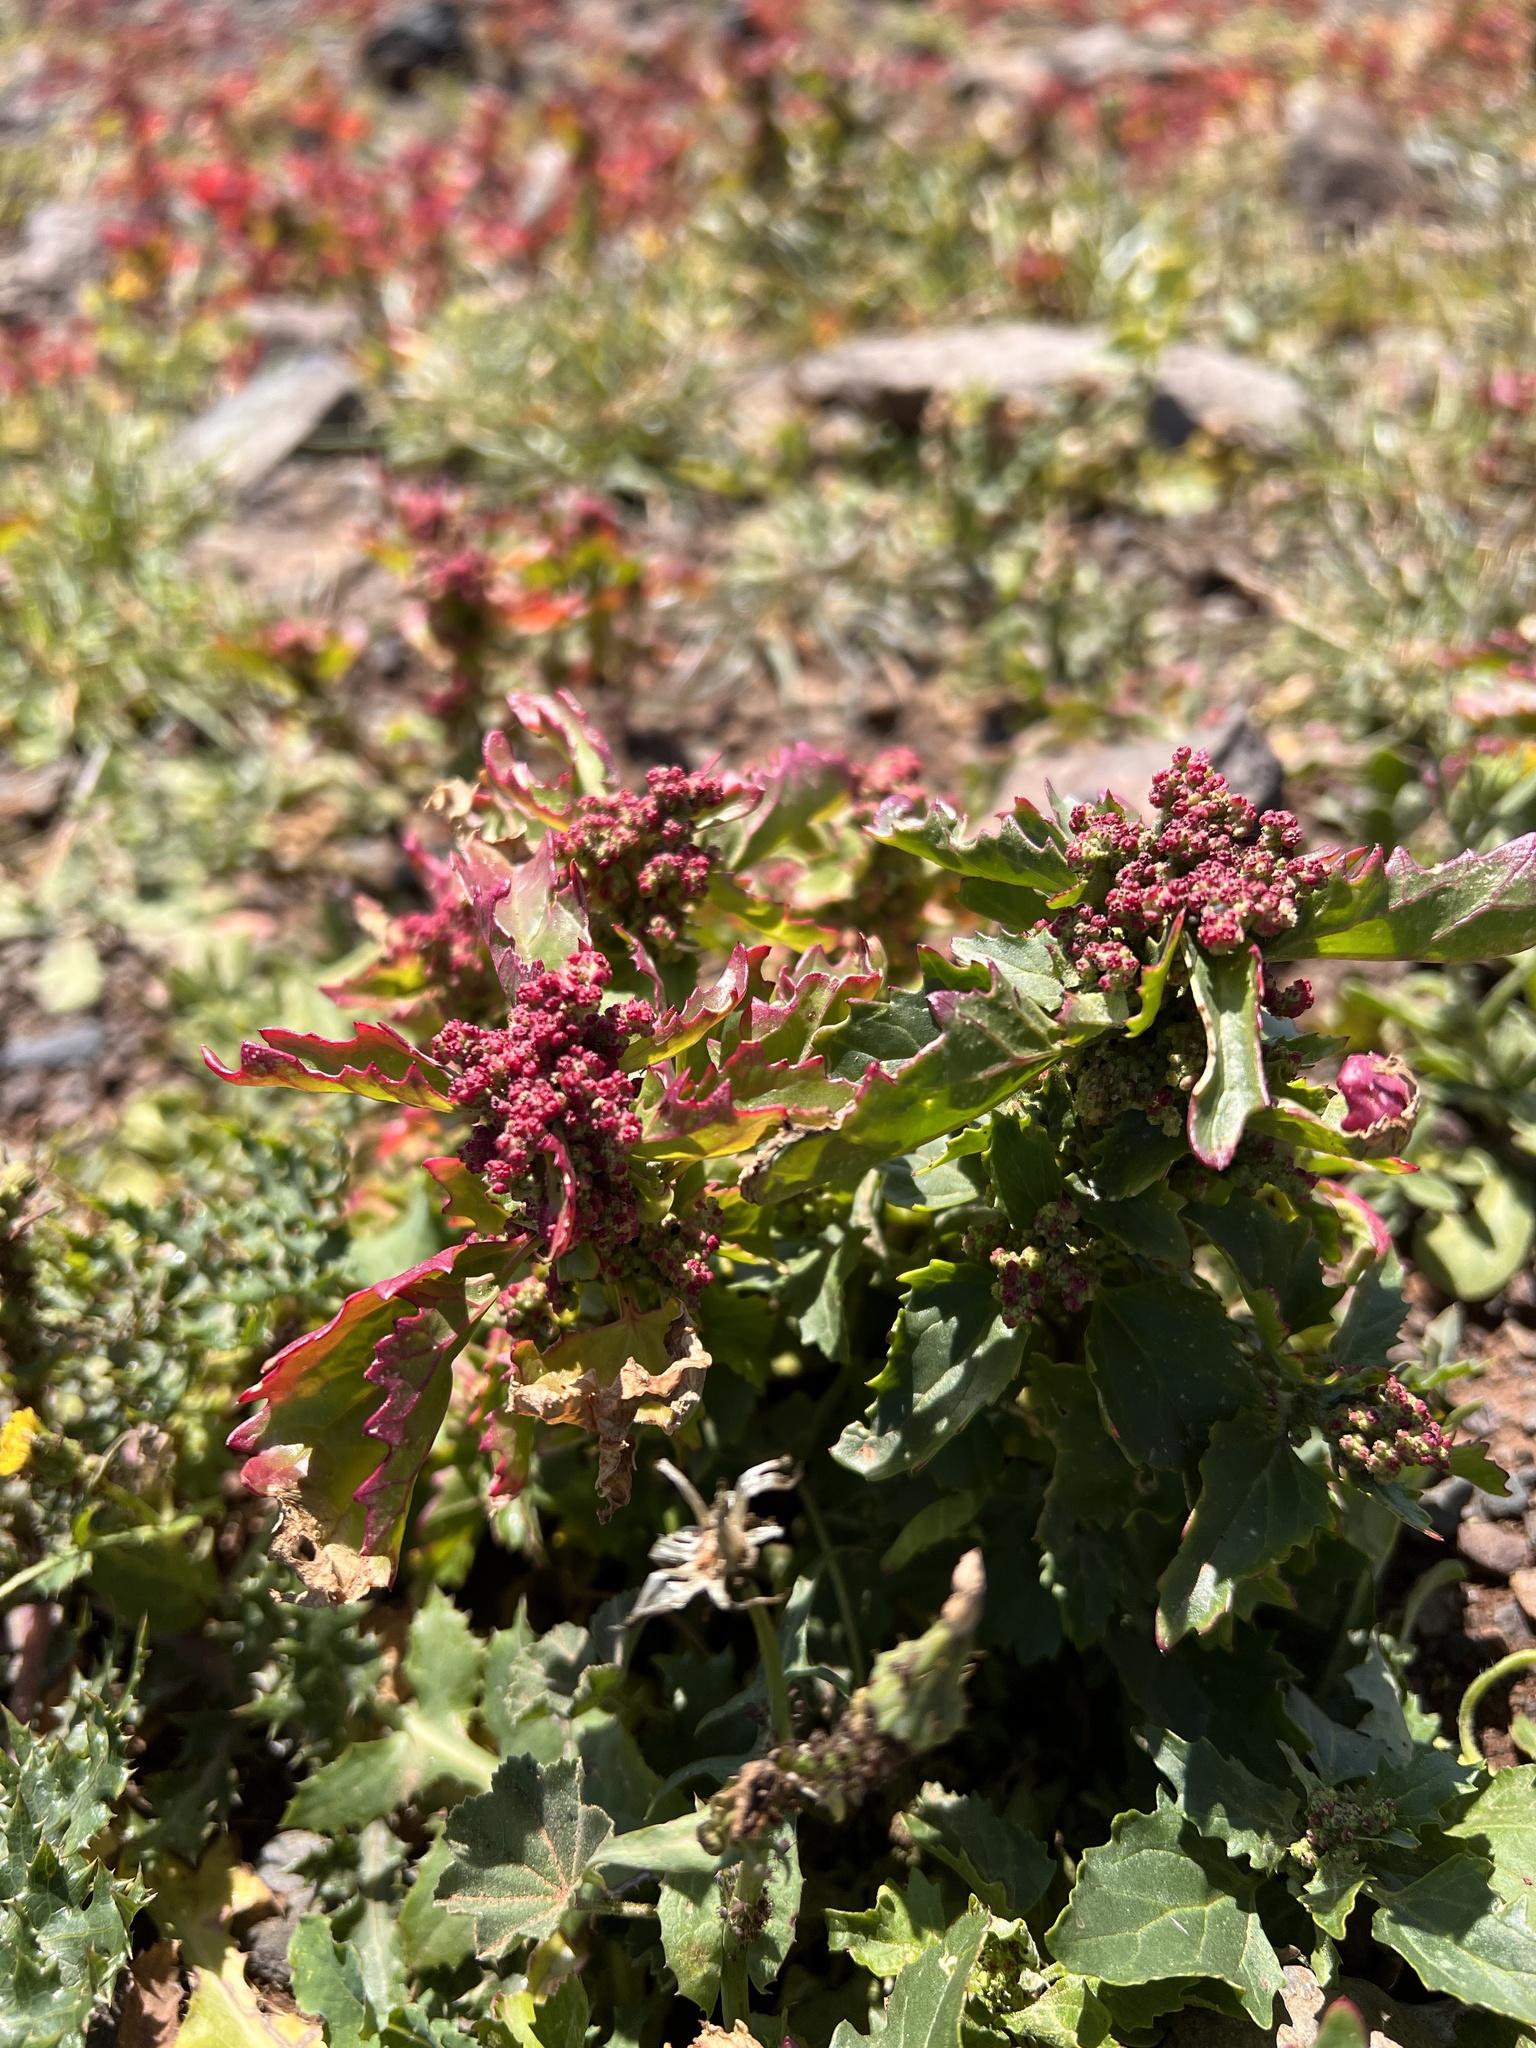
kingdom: Plantae
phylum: Tracheophyta
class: Magnoliopsida
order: Caryophyllales
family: Amaranthaceae
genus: Chenopodiastrum
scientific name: Chenopodiastrum murale
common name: Sowbane
